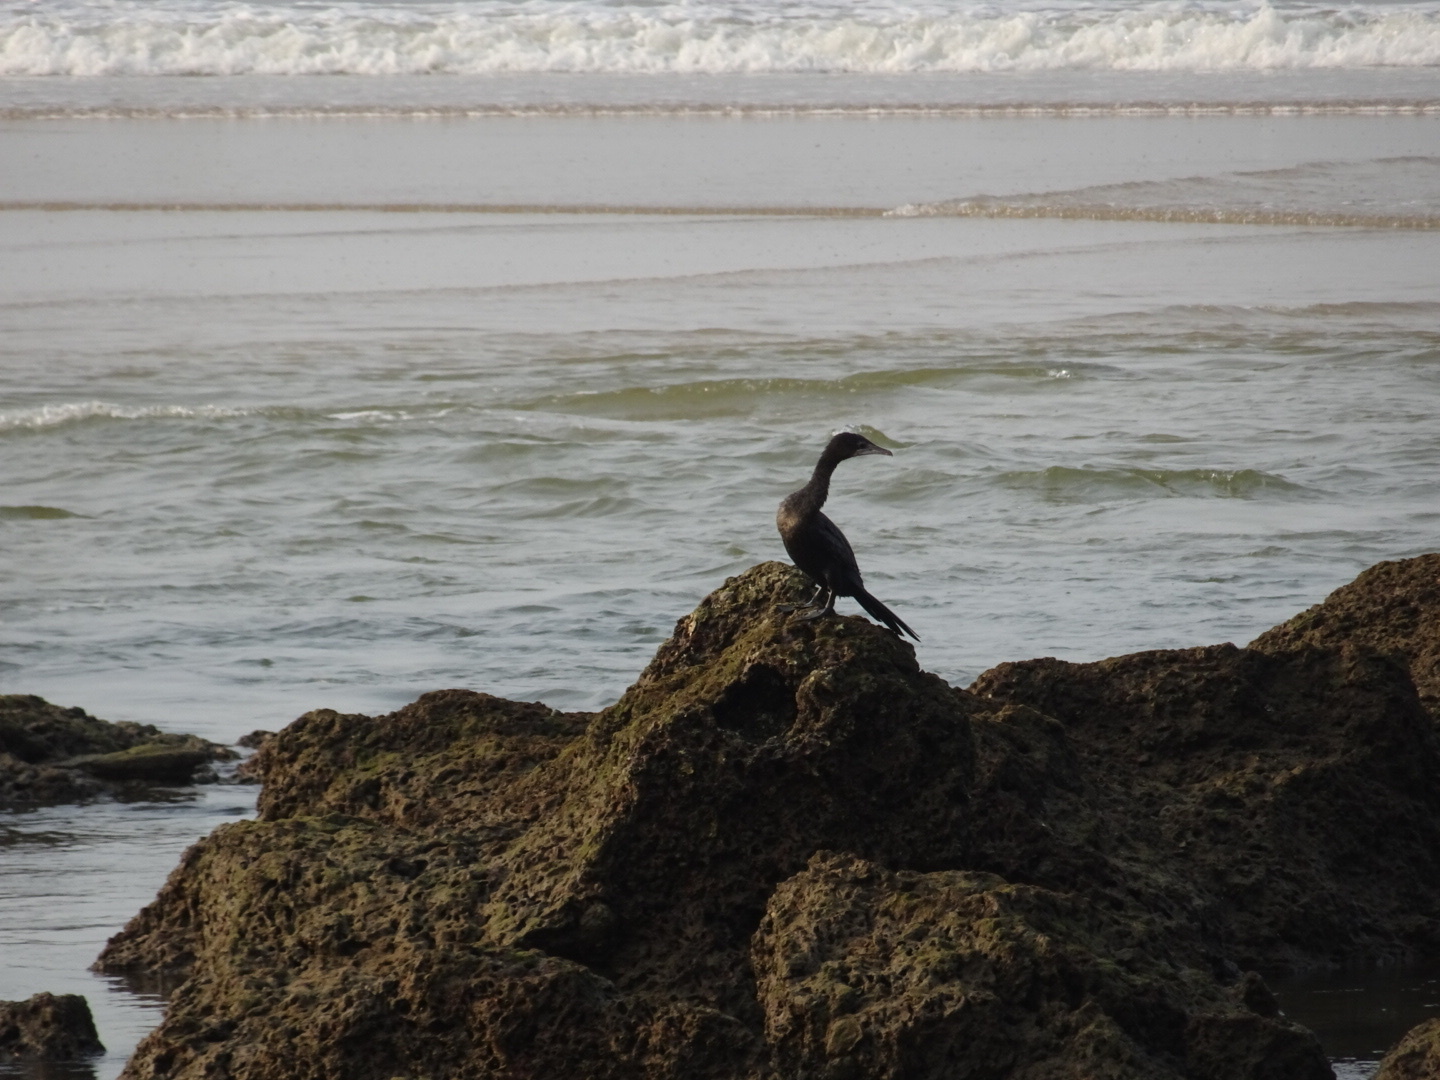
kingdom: Animalia
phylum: Chordata
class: Aves
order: Suliformes
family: Phalacrocoracidae
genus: Microcarbo
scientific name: Microcarbo niger
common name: Little cormorant
